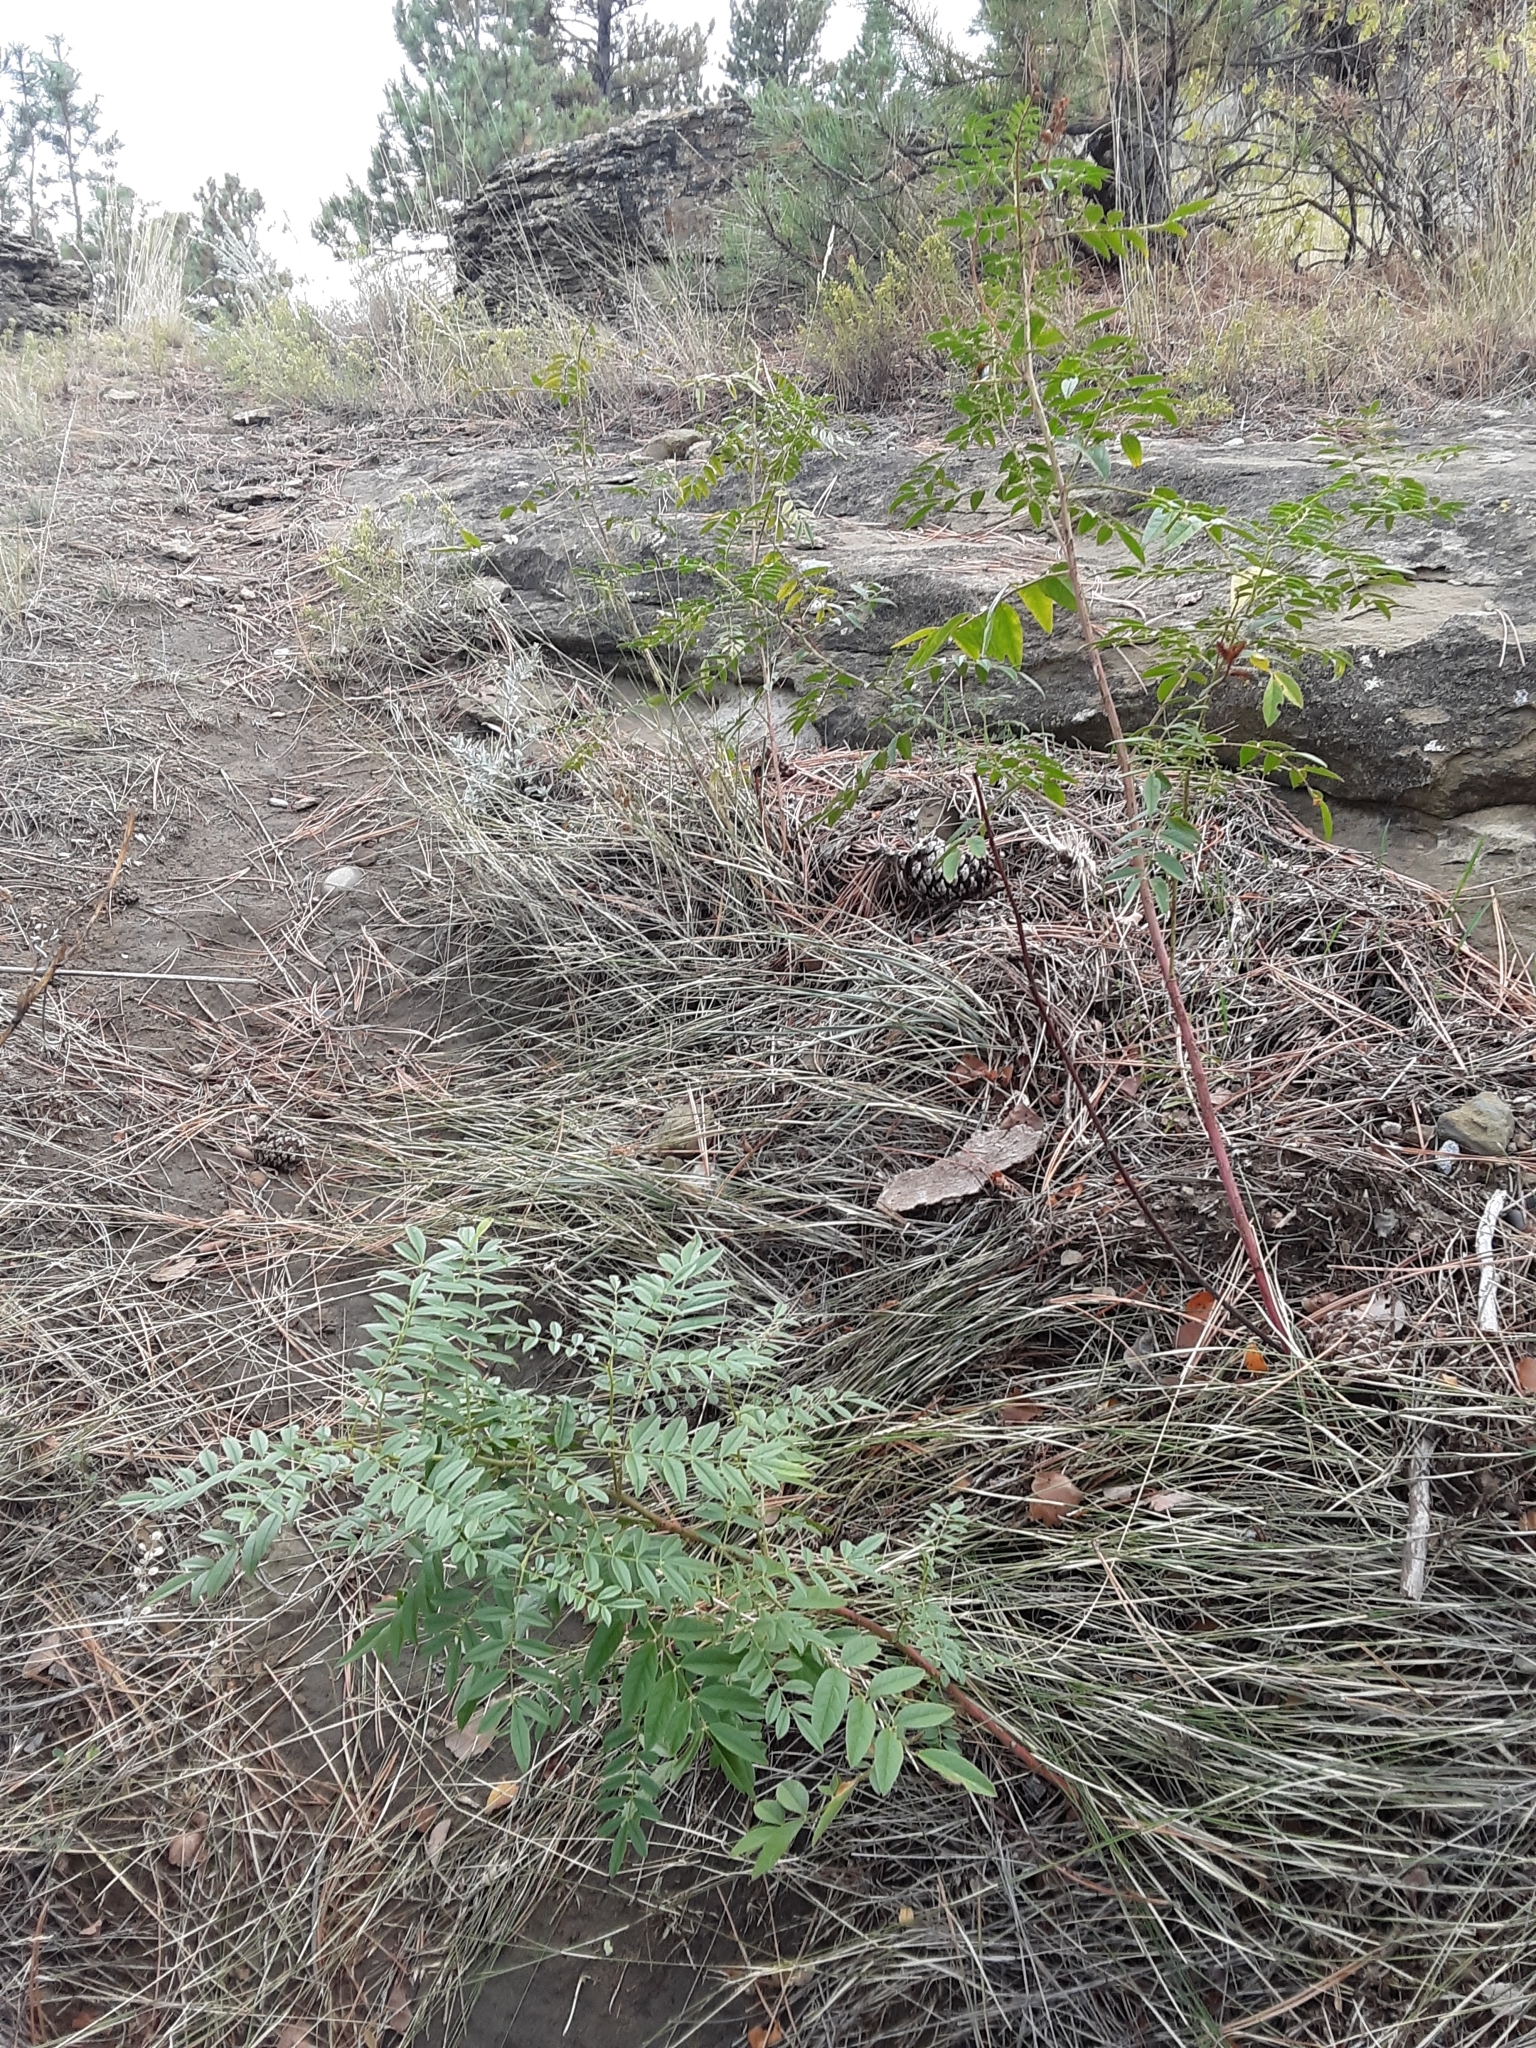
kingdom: Plantae
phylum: Tracheophyta
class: Magnoliopsida
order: Fabales
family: Fabaceae
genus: Glycyrrhiza
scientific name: Glycyrrhiza lepidota
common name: American liquorice
